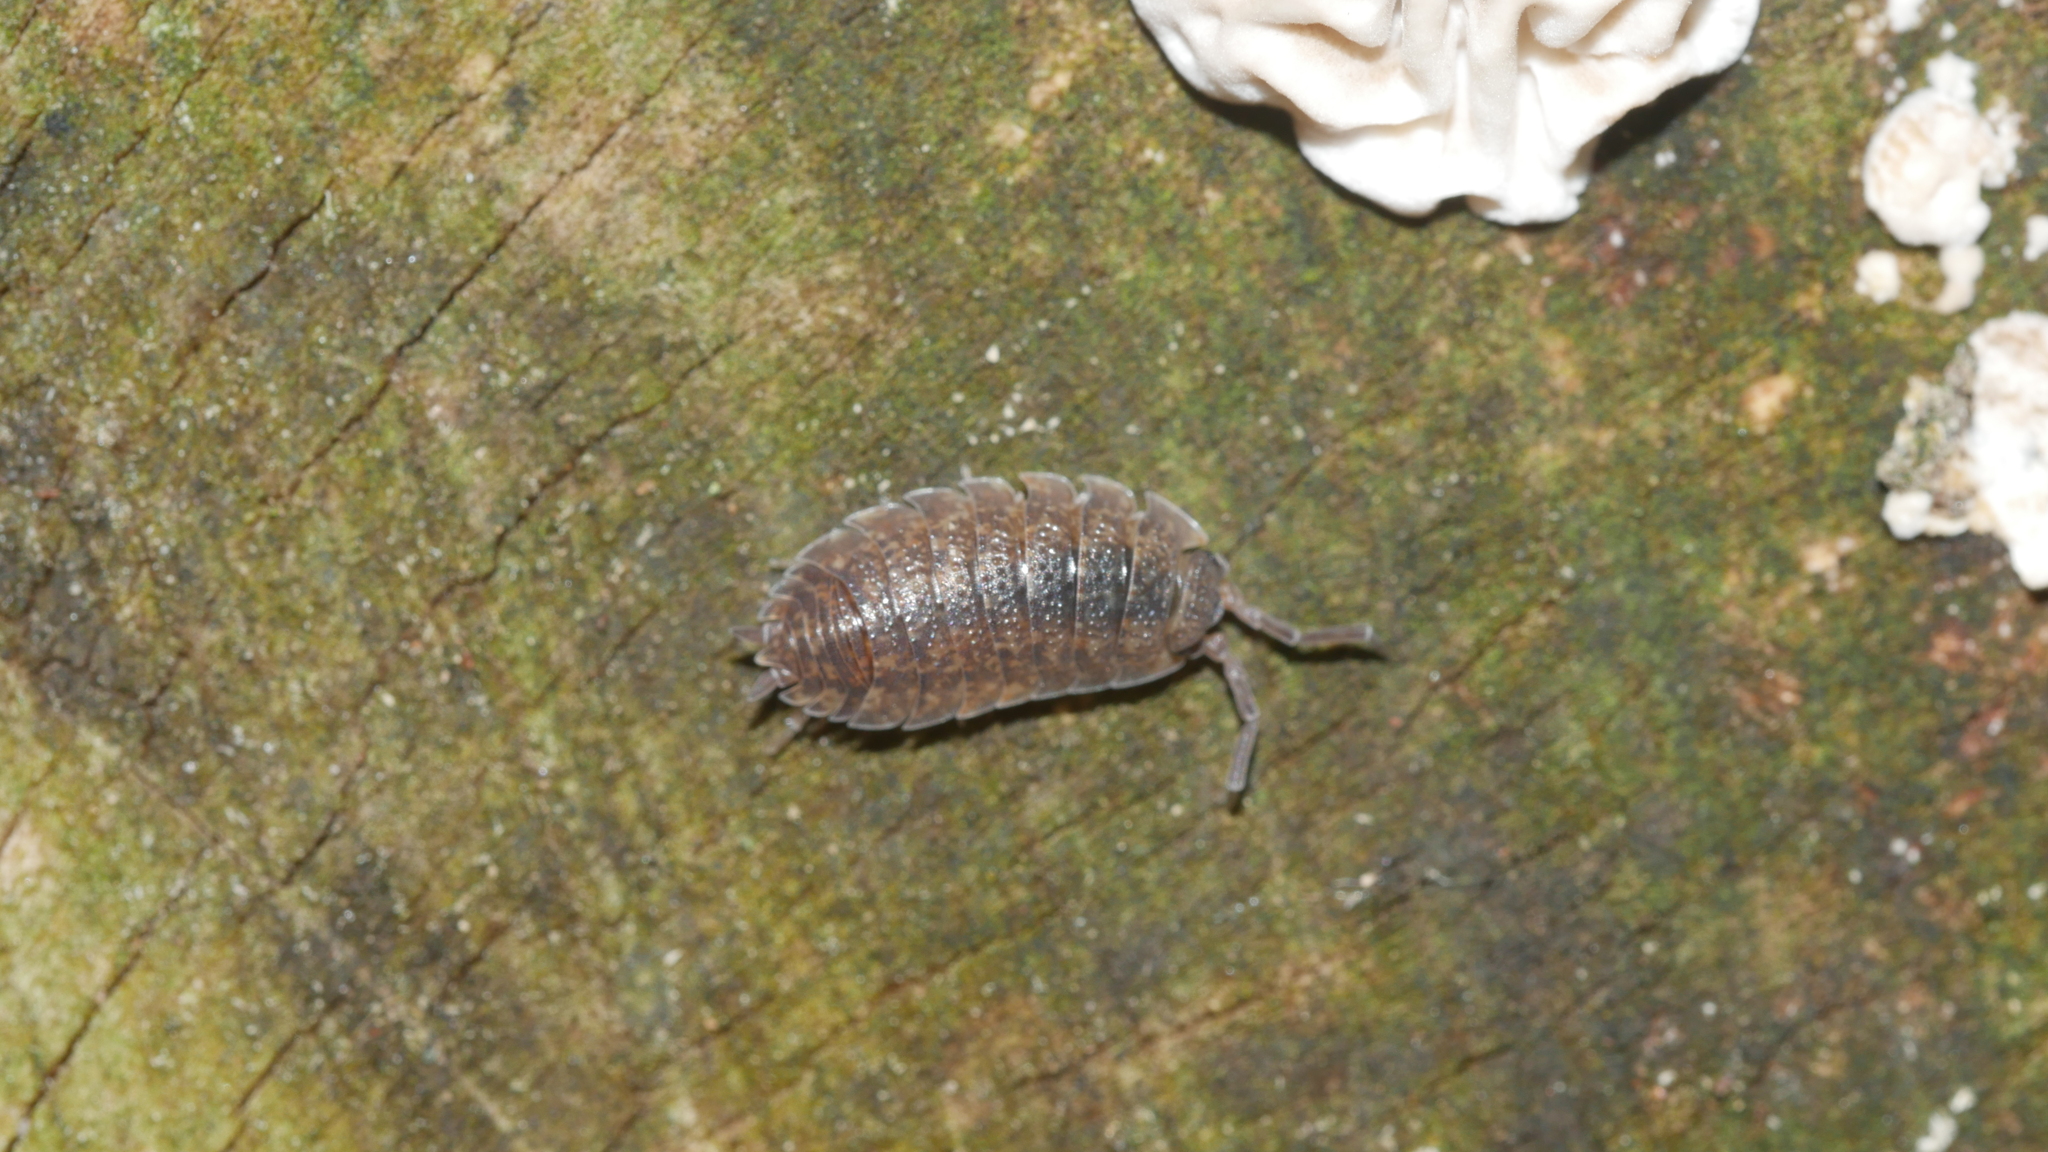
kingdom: Animalia
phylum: Arthropoda
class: Malacostraca
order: Isopoda
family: Porcellionidae
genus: Porcellio
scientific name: Porcellio scaber
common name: Common rough woodlouse
